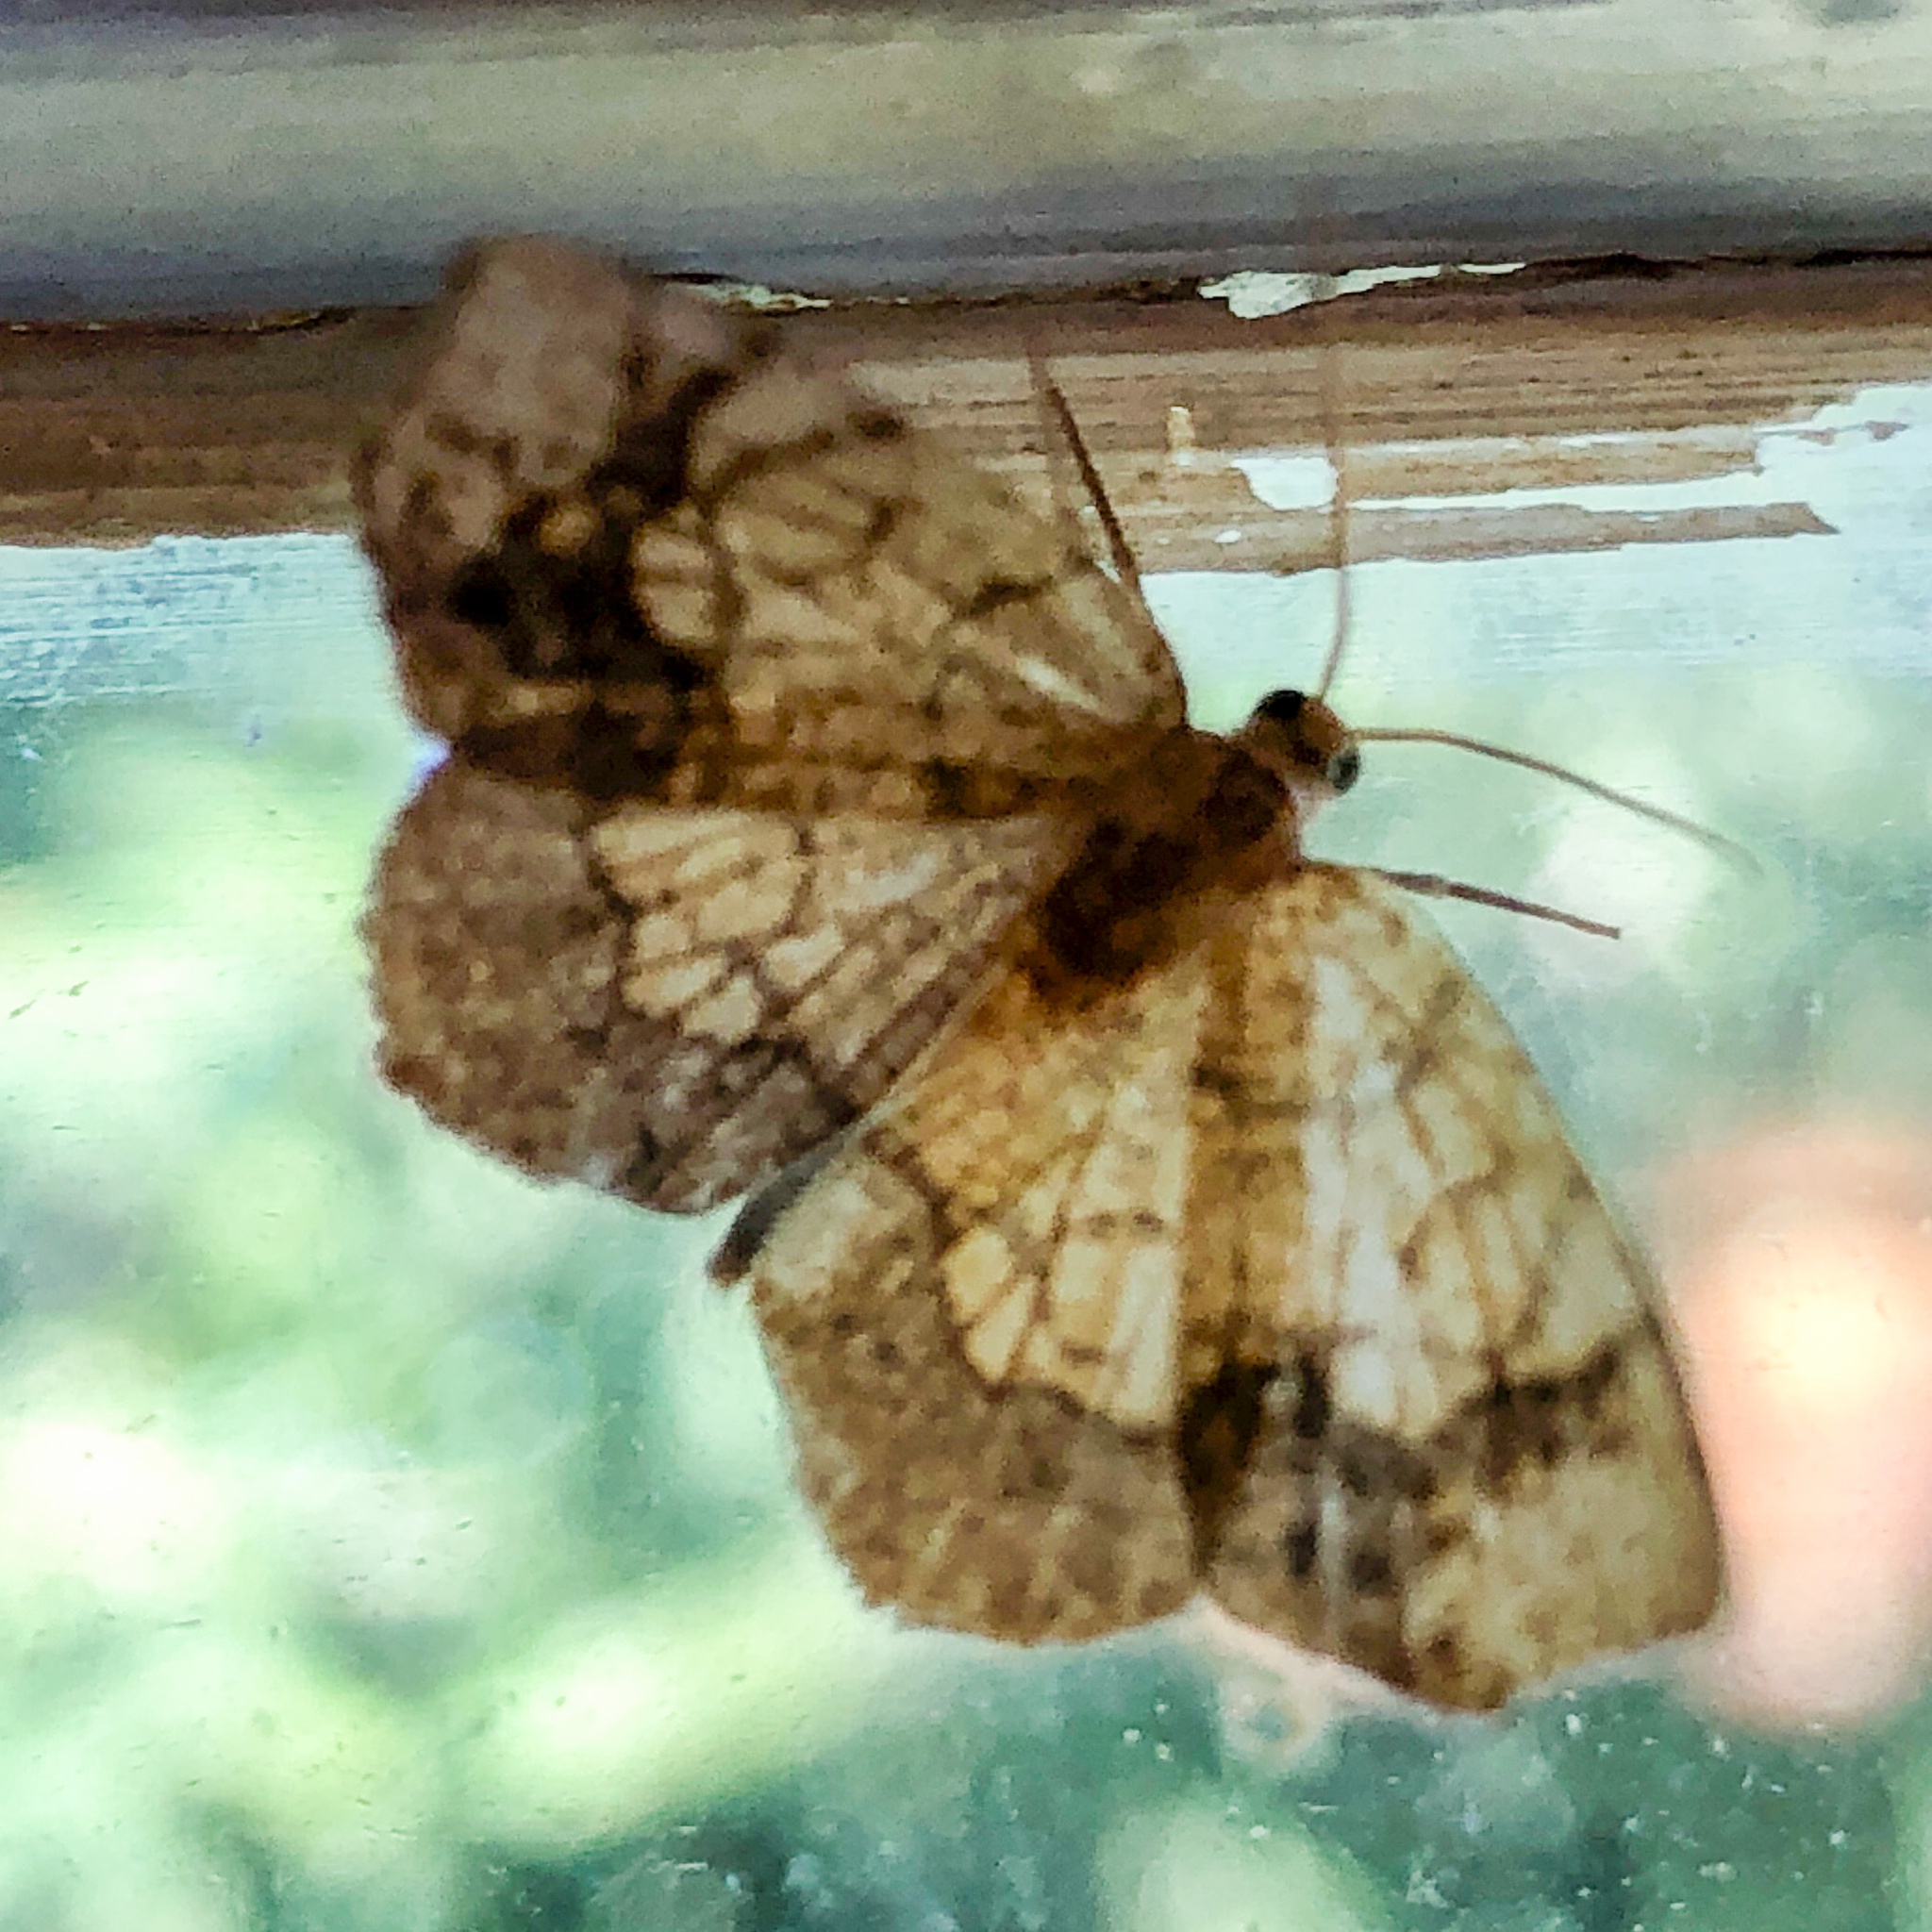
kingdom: Animalia
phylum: Arthropoda
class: Insecta
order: Lepidoptera
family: Geometridae
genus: Nematocampa
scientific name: Nematocampa resistaria
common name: Horned spanworm moth
